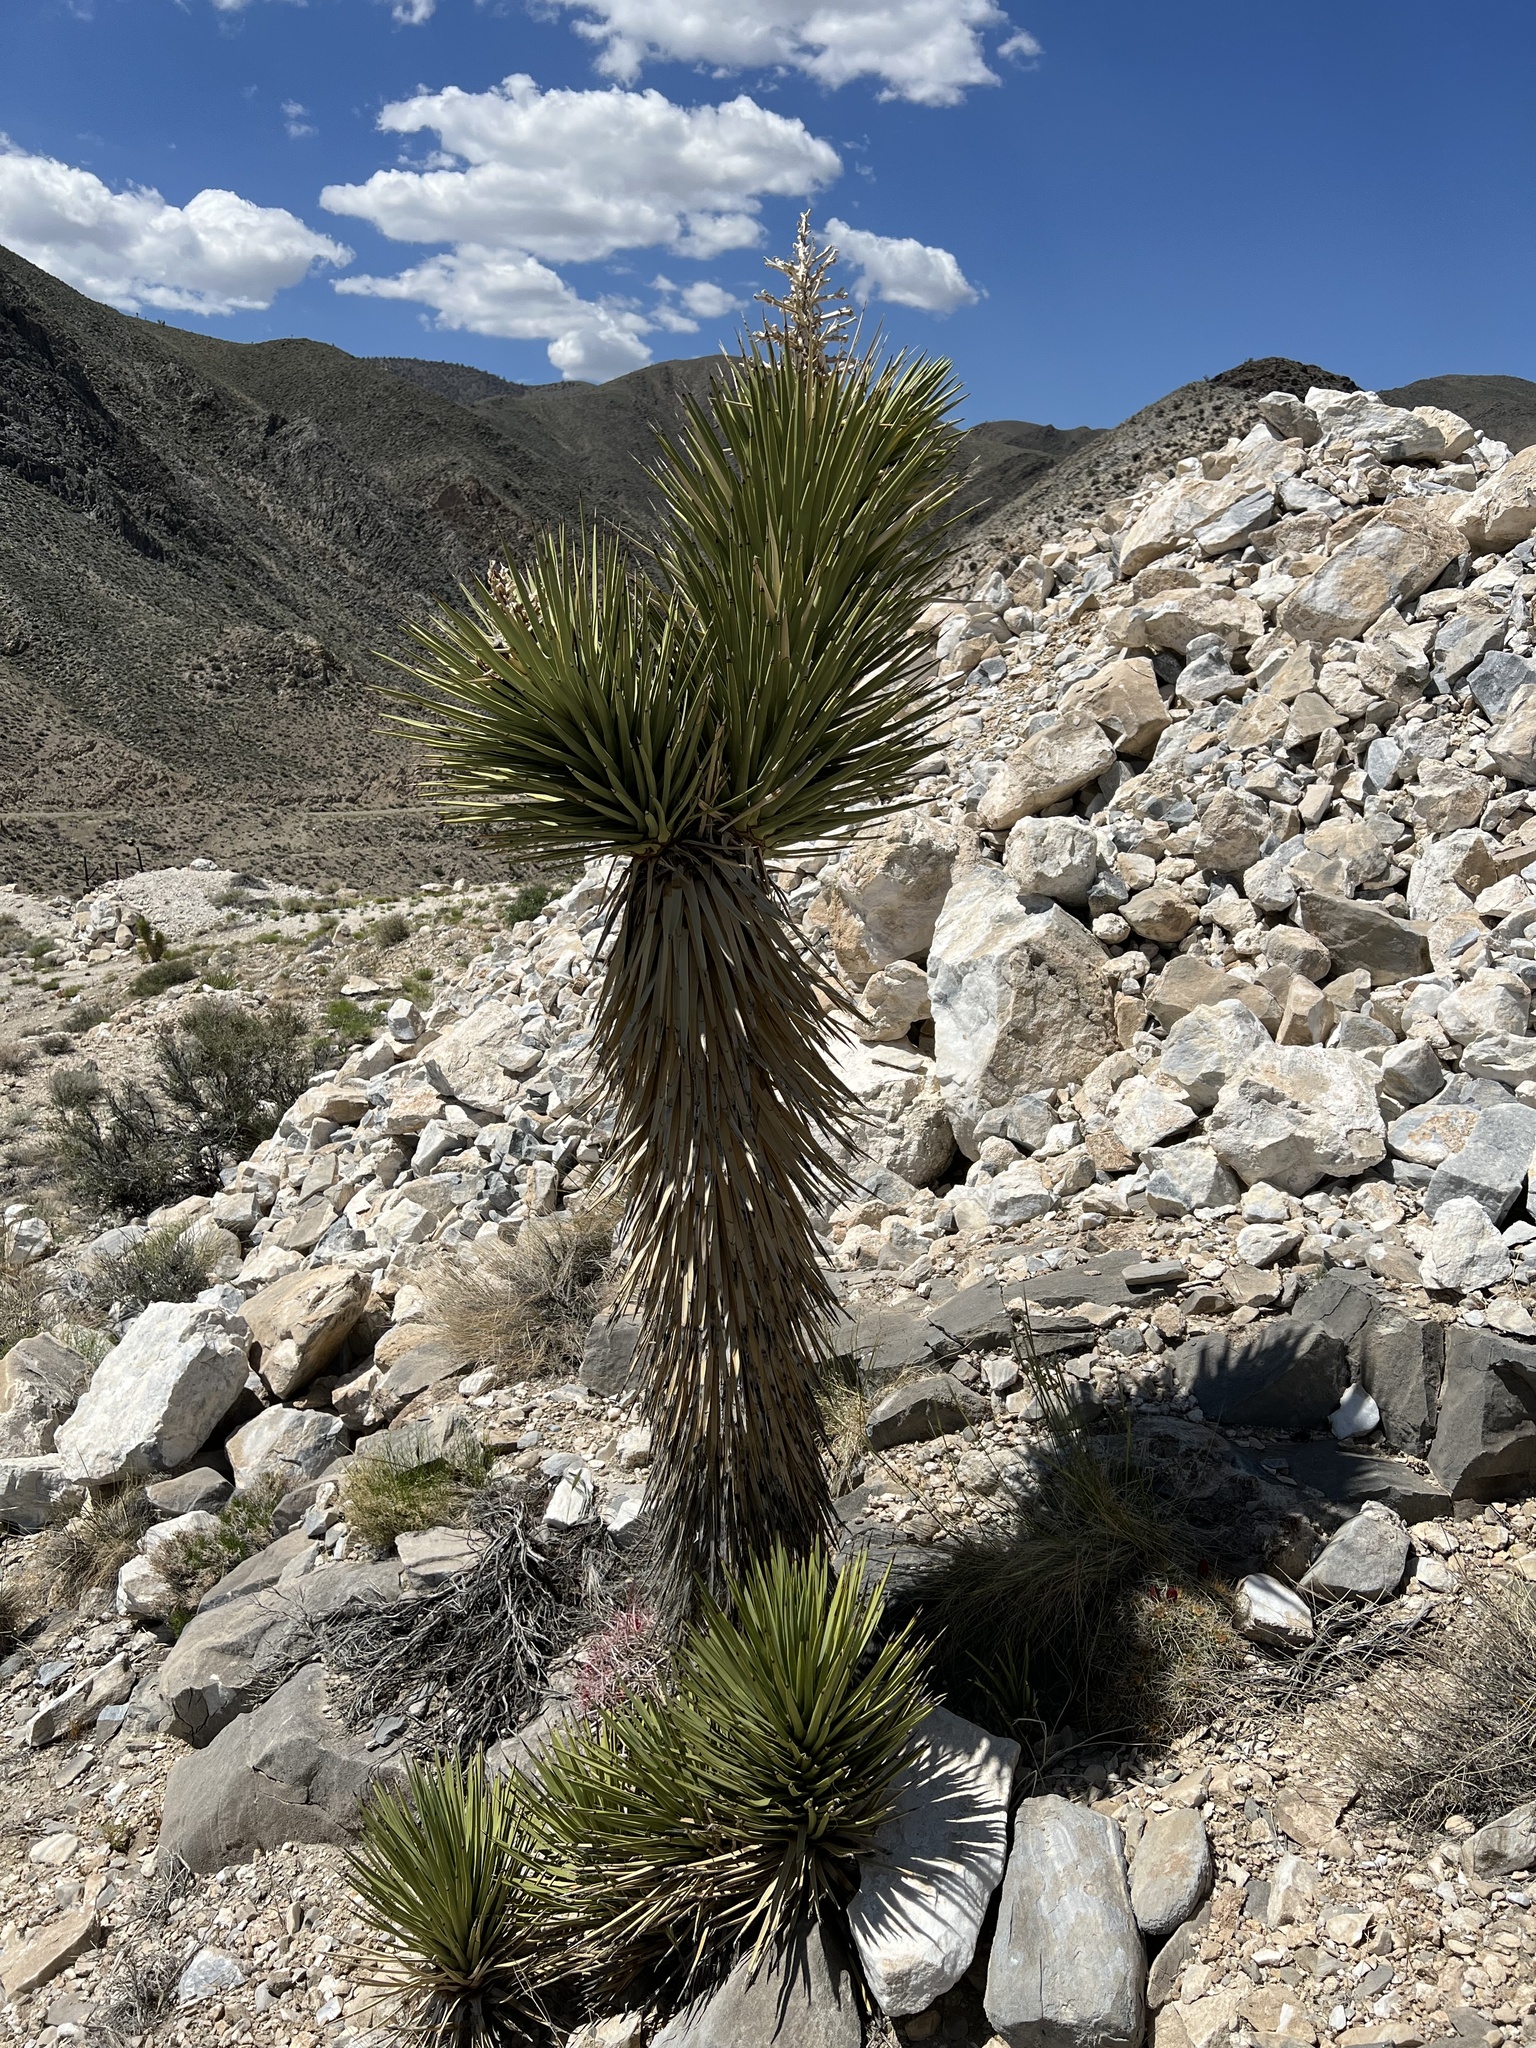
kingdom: Plantae
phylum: Tracheophyta
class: Liliopsida
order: Asparagales
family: Asparagaceae
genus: Yucca
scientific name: Yucca brevifolia
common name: Joshua tree
